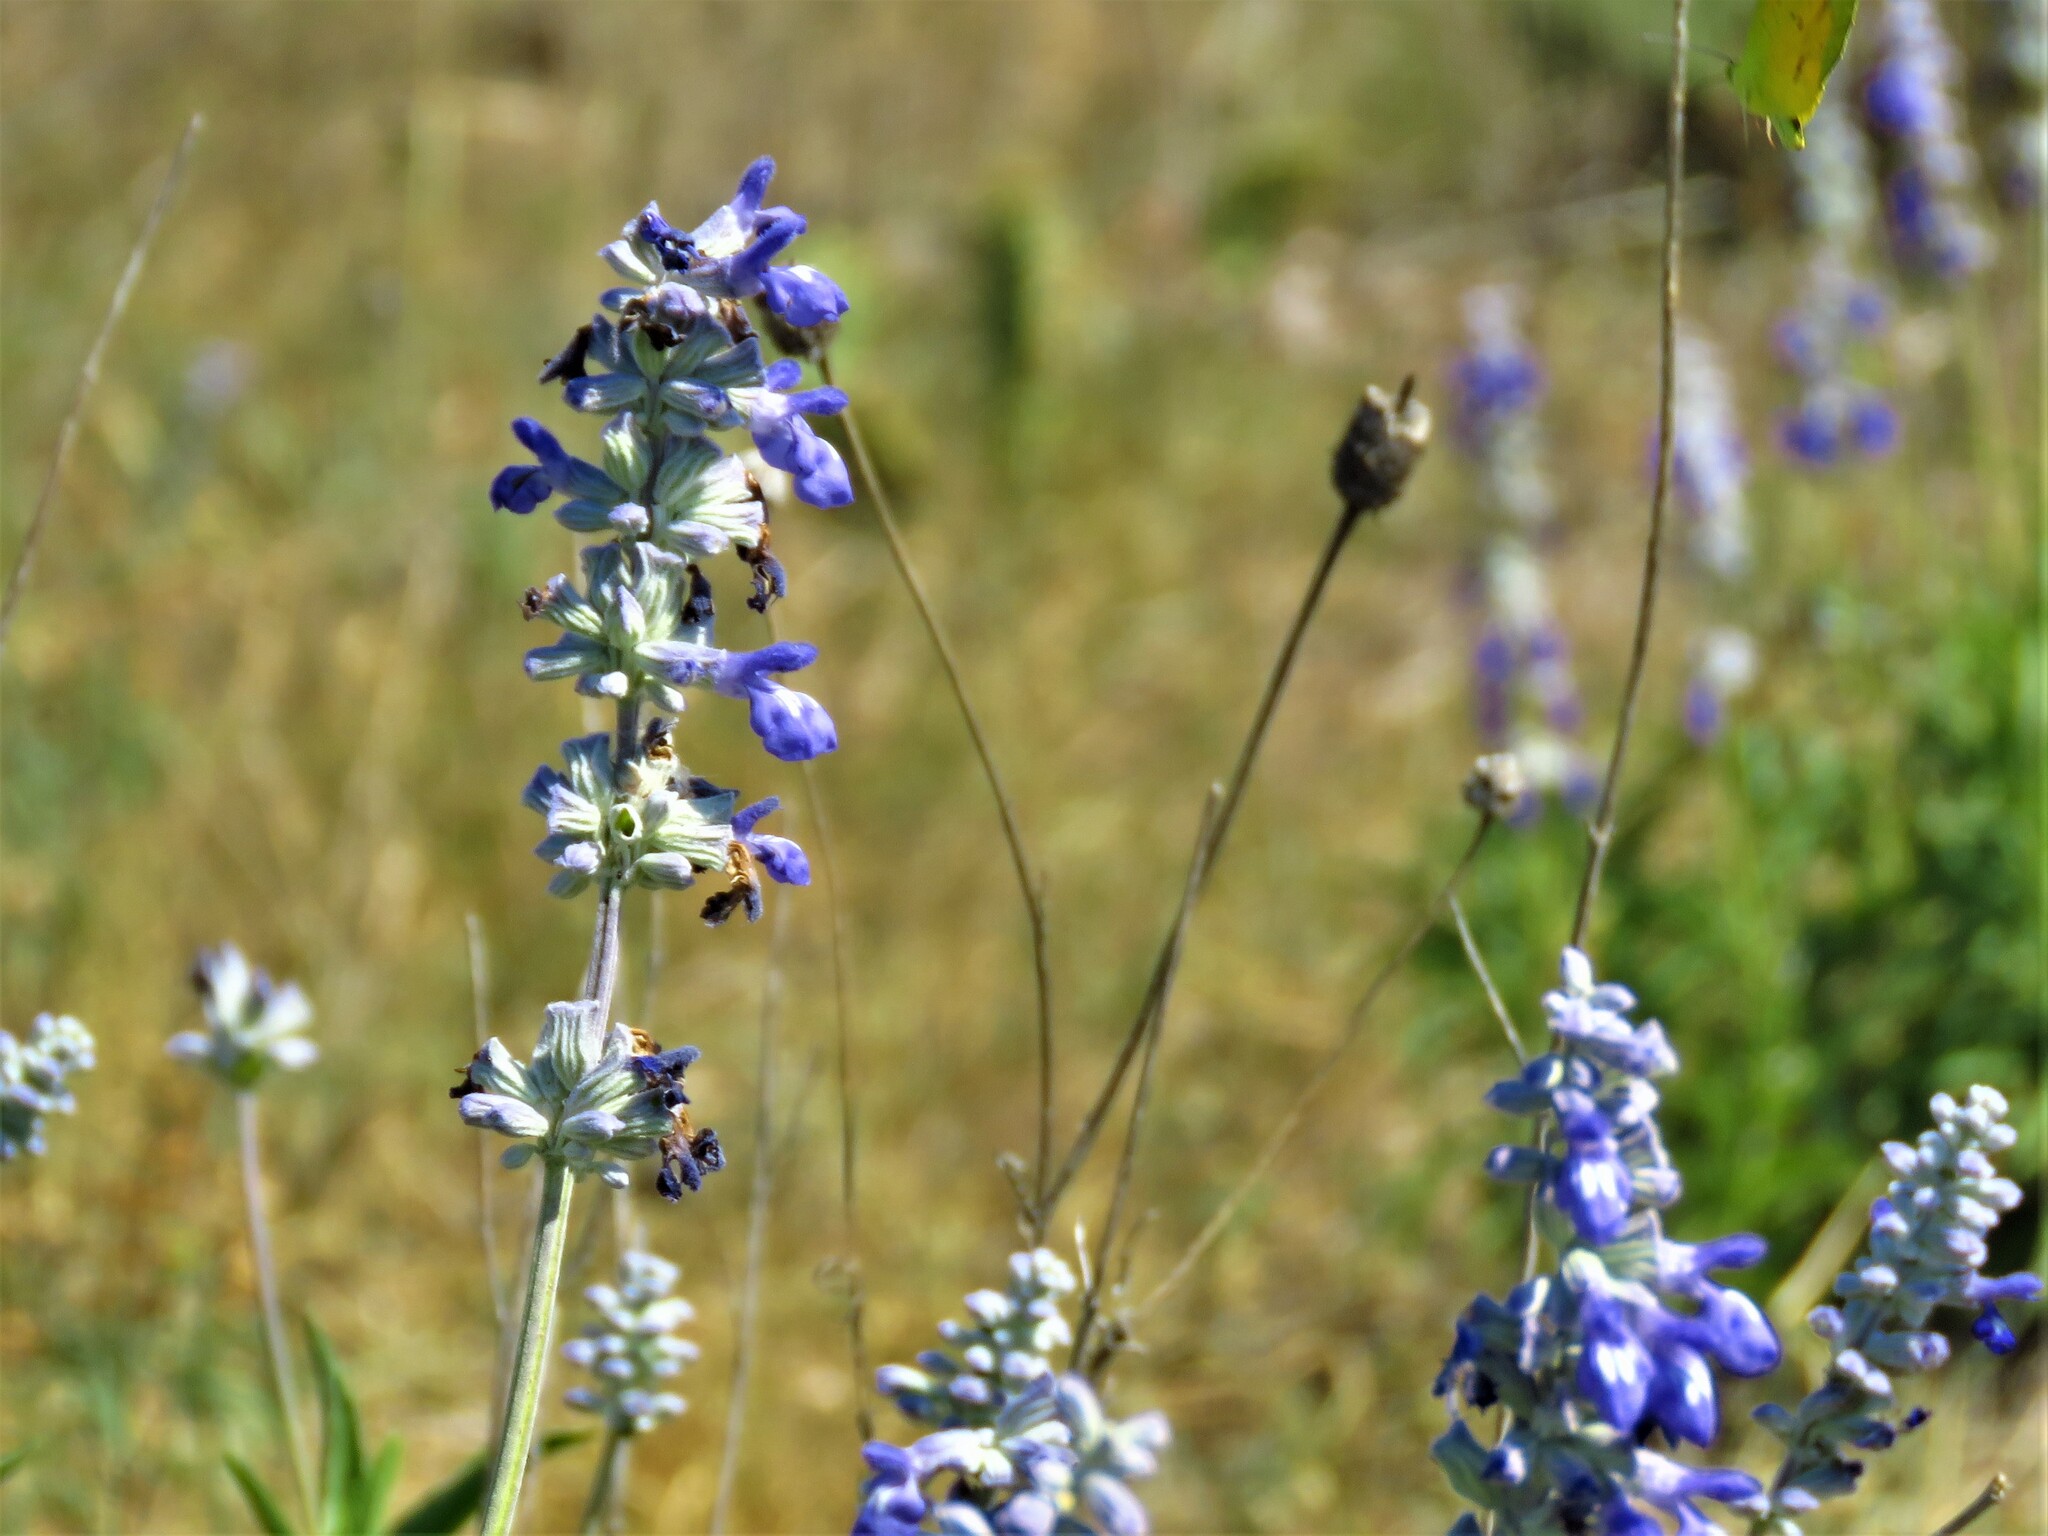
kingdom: Plantae
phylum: Tracheophyta
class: Magnoliopsida
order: Lamiales
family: Lamiaceae
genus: Salvia
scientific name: Salvia farinacea
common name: Mealy sage
